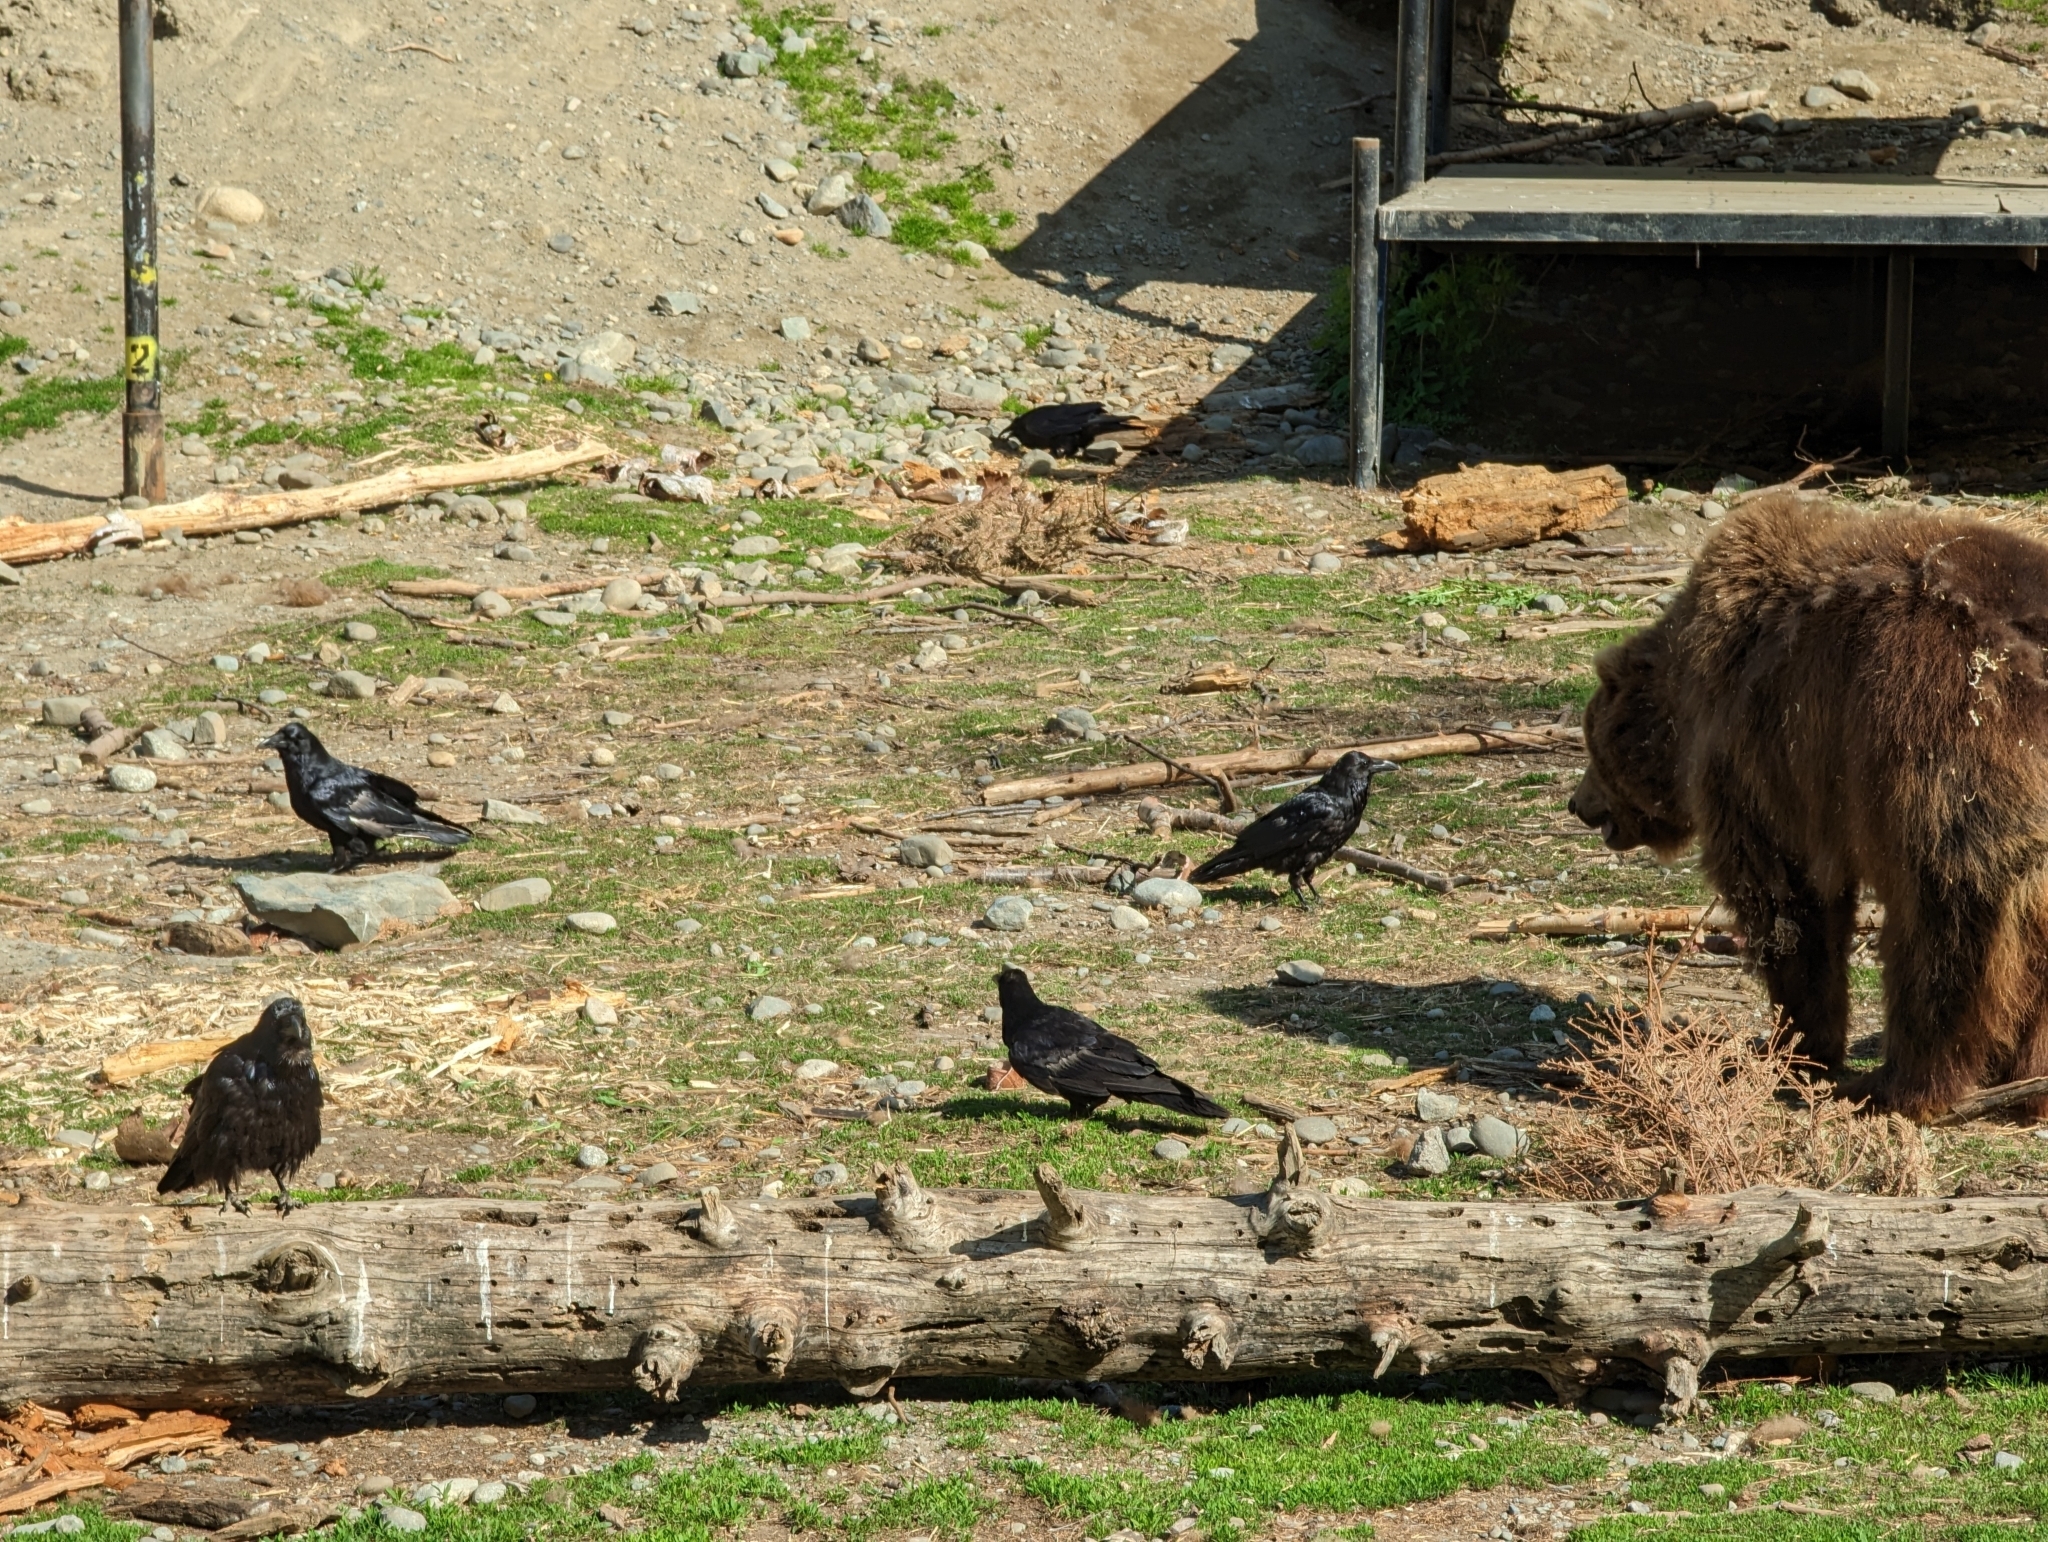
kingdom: Animalia
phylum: Chordata
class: Aves
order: Passeriformes
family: Corvidae
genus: Corvus
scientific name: Corvus corax
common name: Common raven
